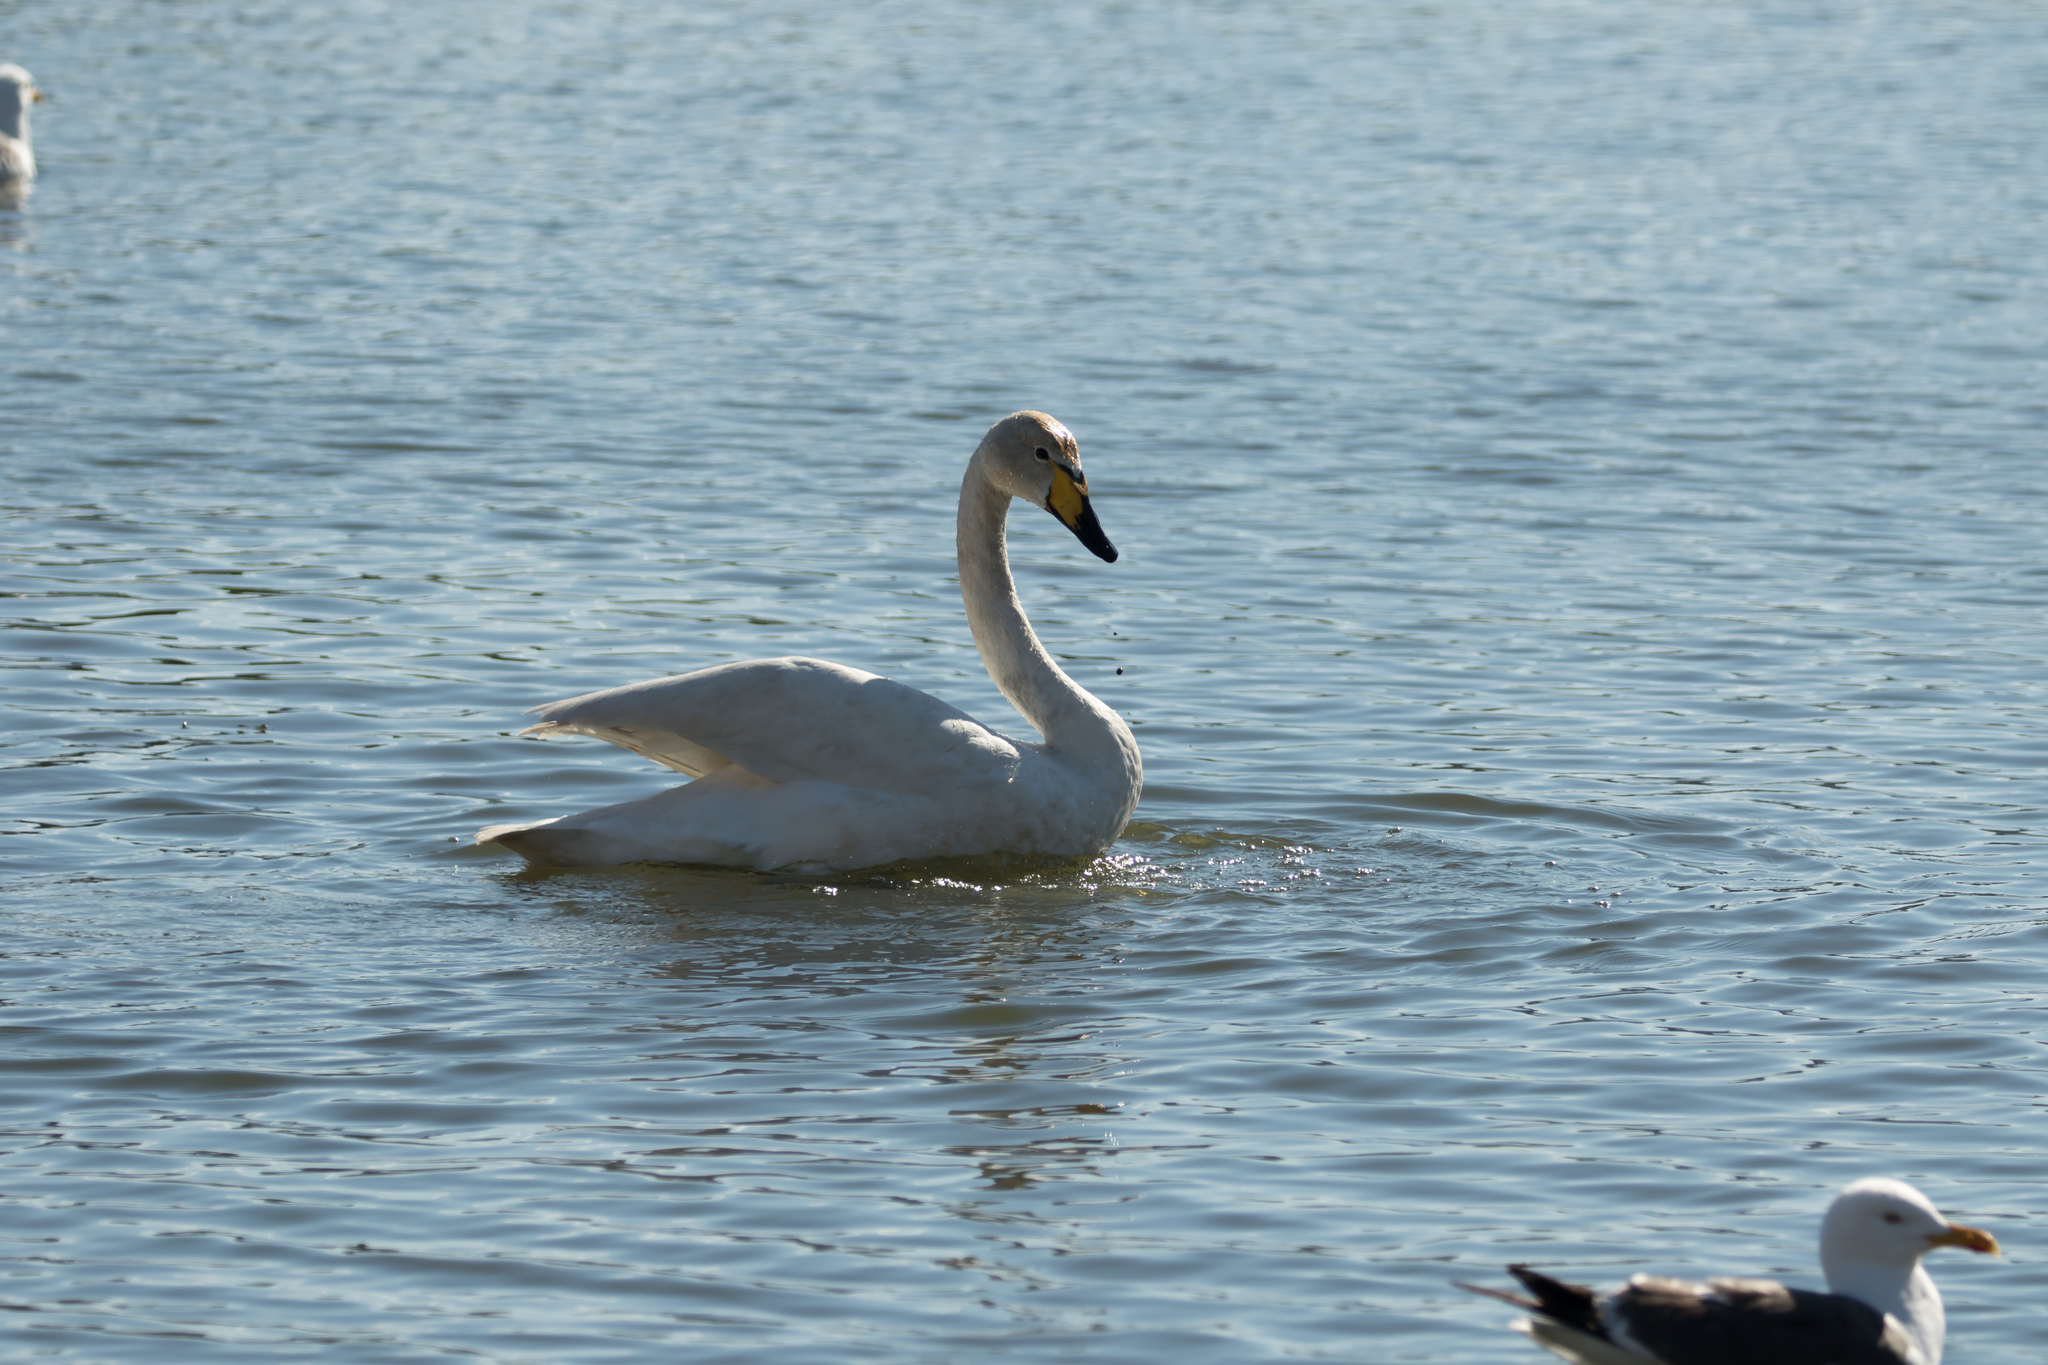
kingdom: Animalia
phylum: Chordata
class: Aves
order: Anseriformes
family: Anatidae
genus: Cygnus
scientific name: Cygnus cygnus
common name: Whooper swan
